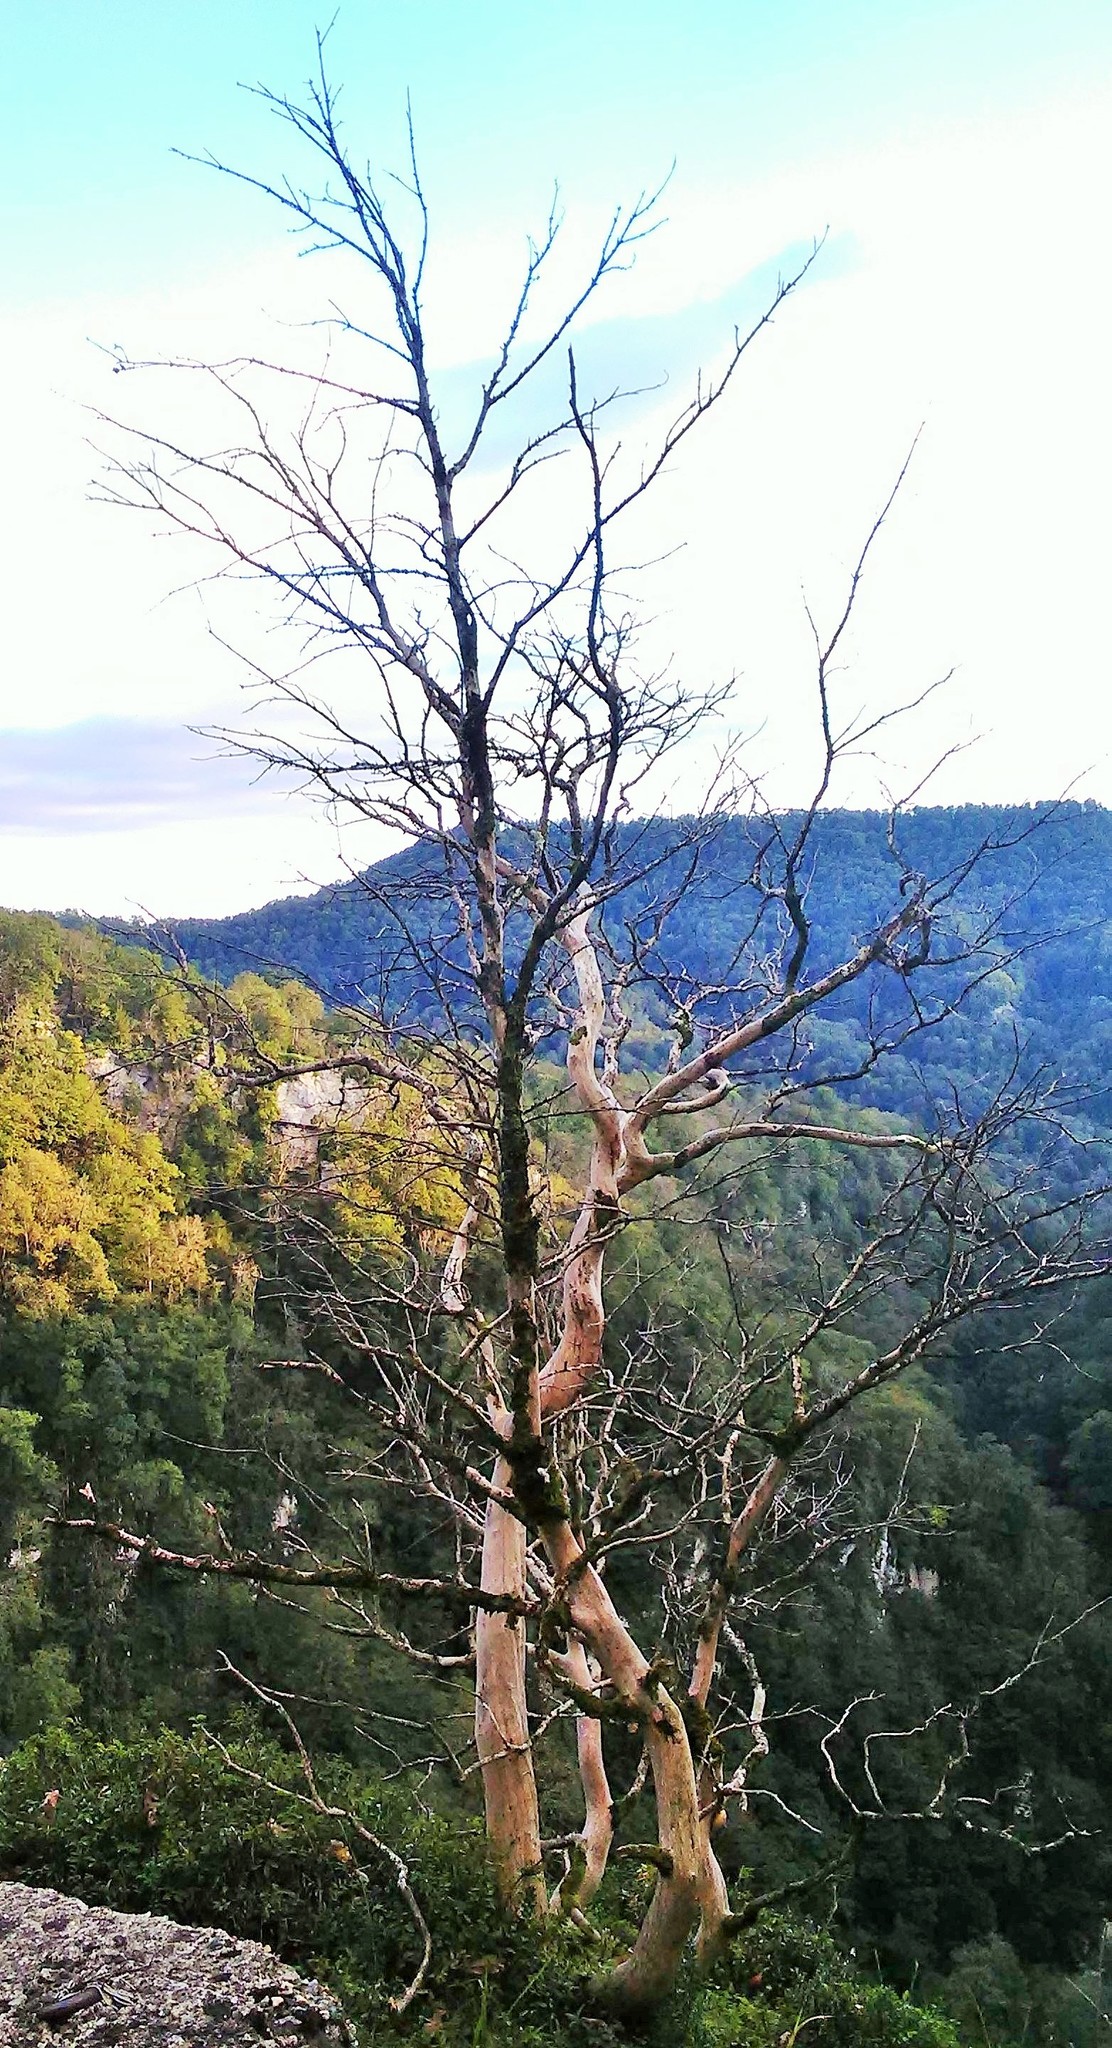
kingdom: Plantae
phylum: Tracheophyta
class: Magnoliopsida
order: Buxales
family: Buxaceae
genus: Buxus
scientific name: Buxus sempervirens
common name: Box
